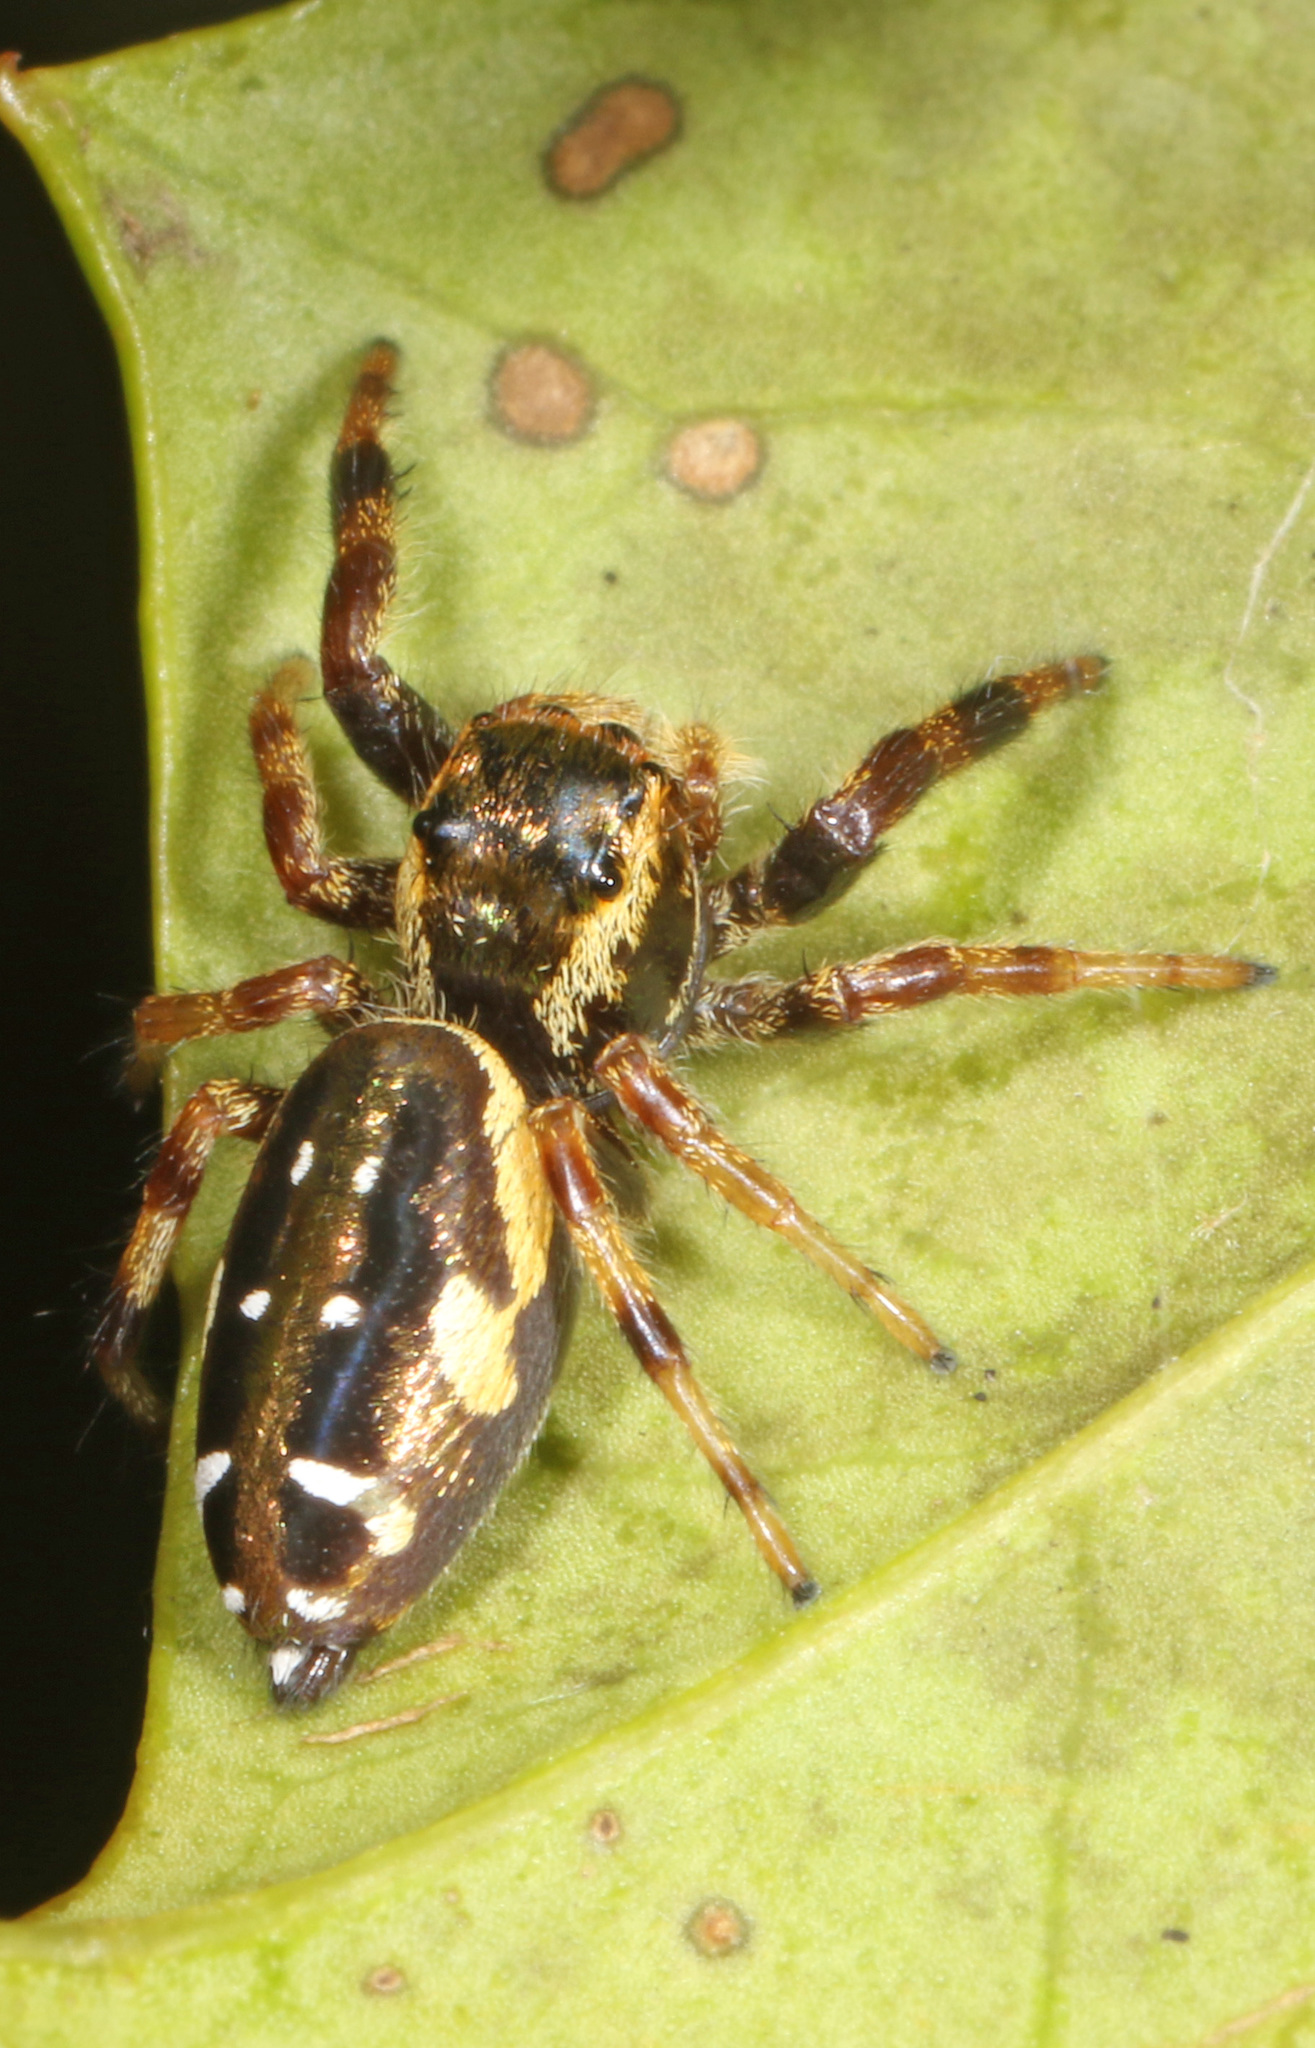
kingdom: Animalia
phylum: Arthropoda
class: Arachnida
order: Araneae
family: Salticidae
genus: Paraphidippus
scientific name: Paraphidippus aurantius
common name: Jumping spiders
